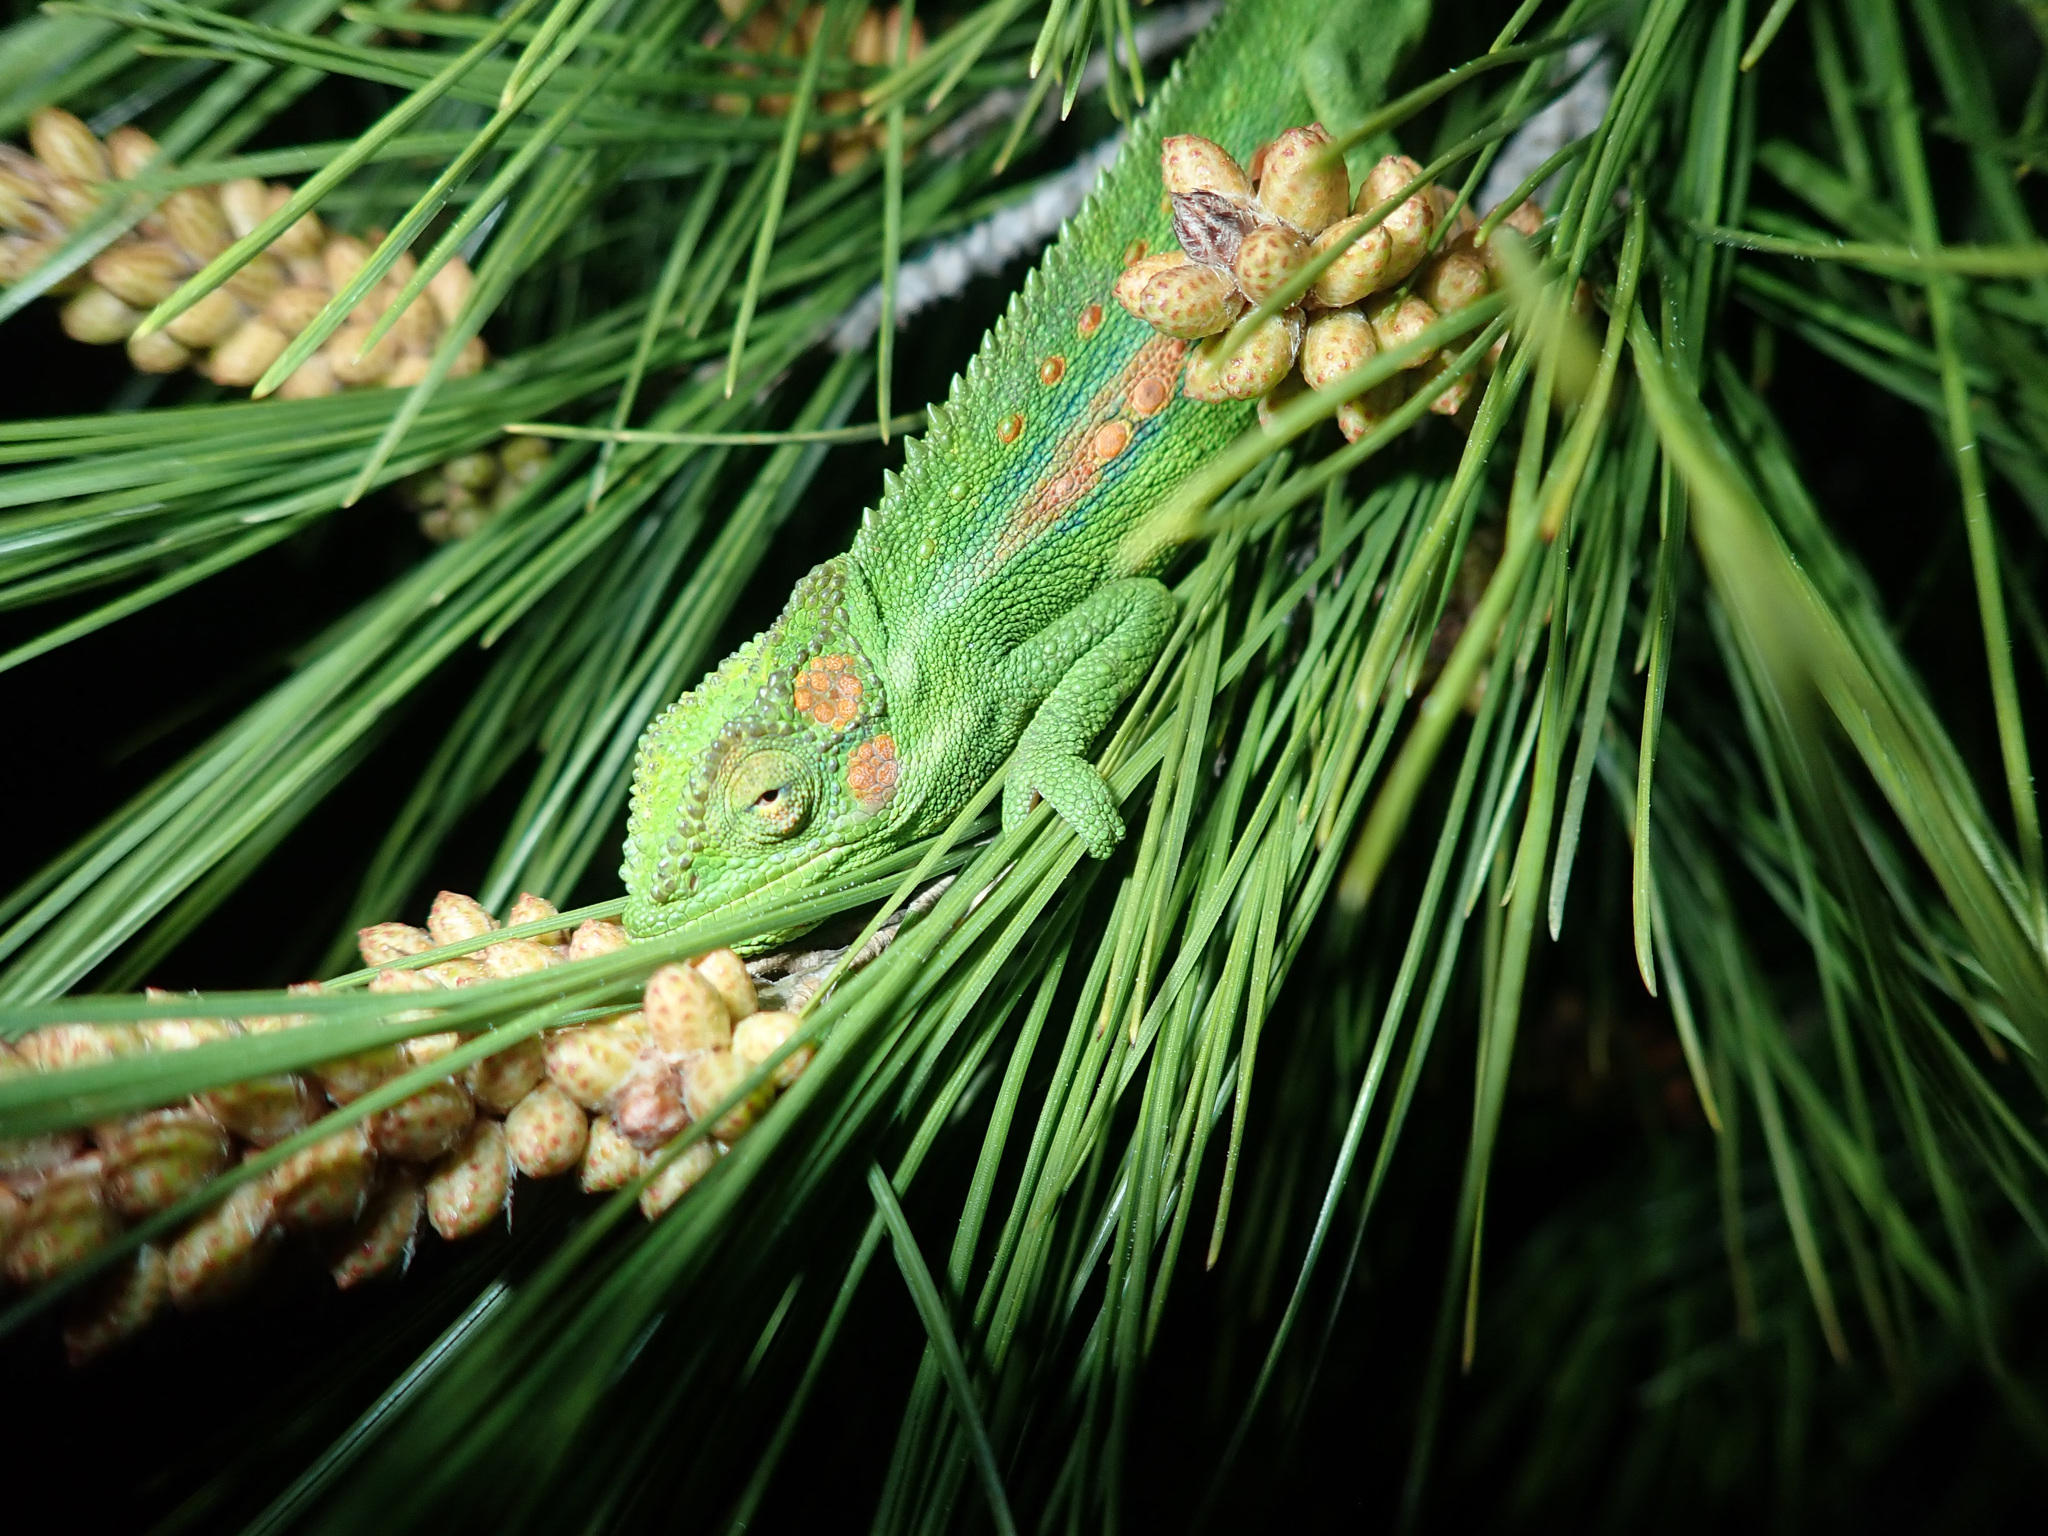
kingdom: Animalia
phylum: Chordata
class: Squamata
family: Chamaeleonidae
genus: Bradypodion
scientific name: Bradypodion pumilum
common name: Cape dwarf chameleon
